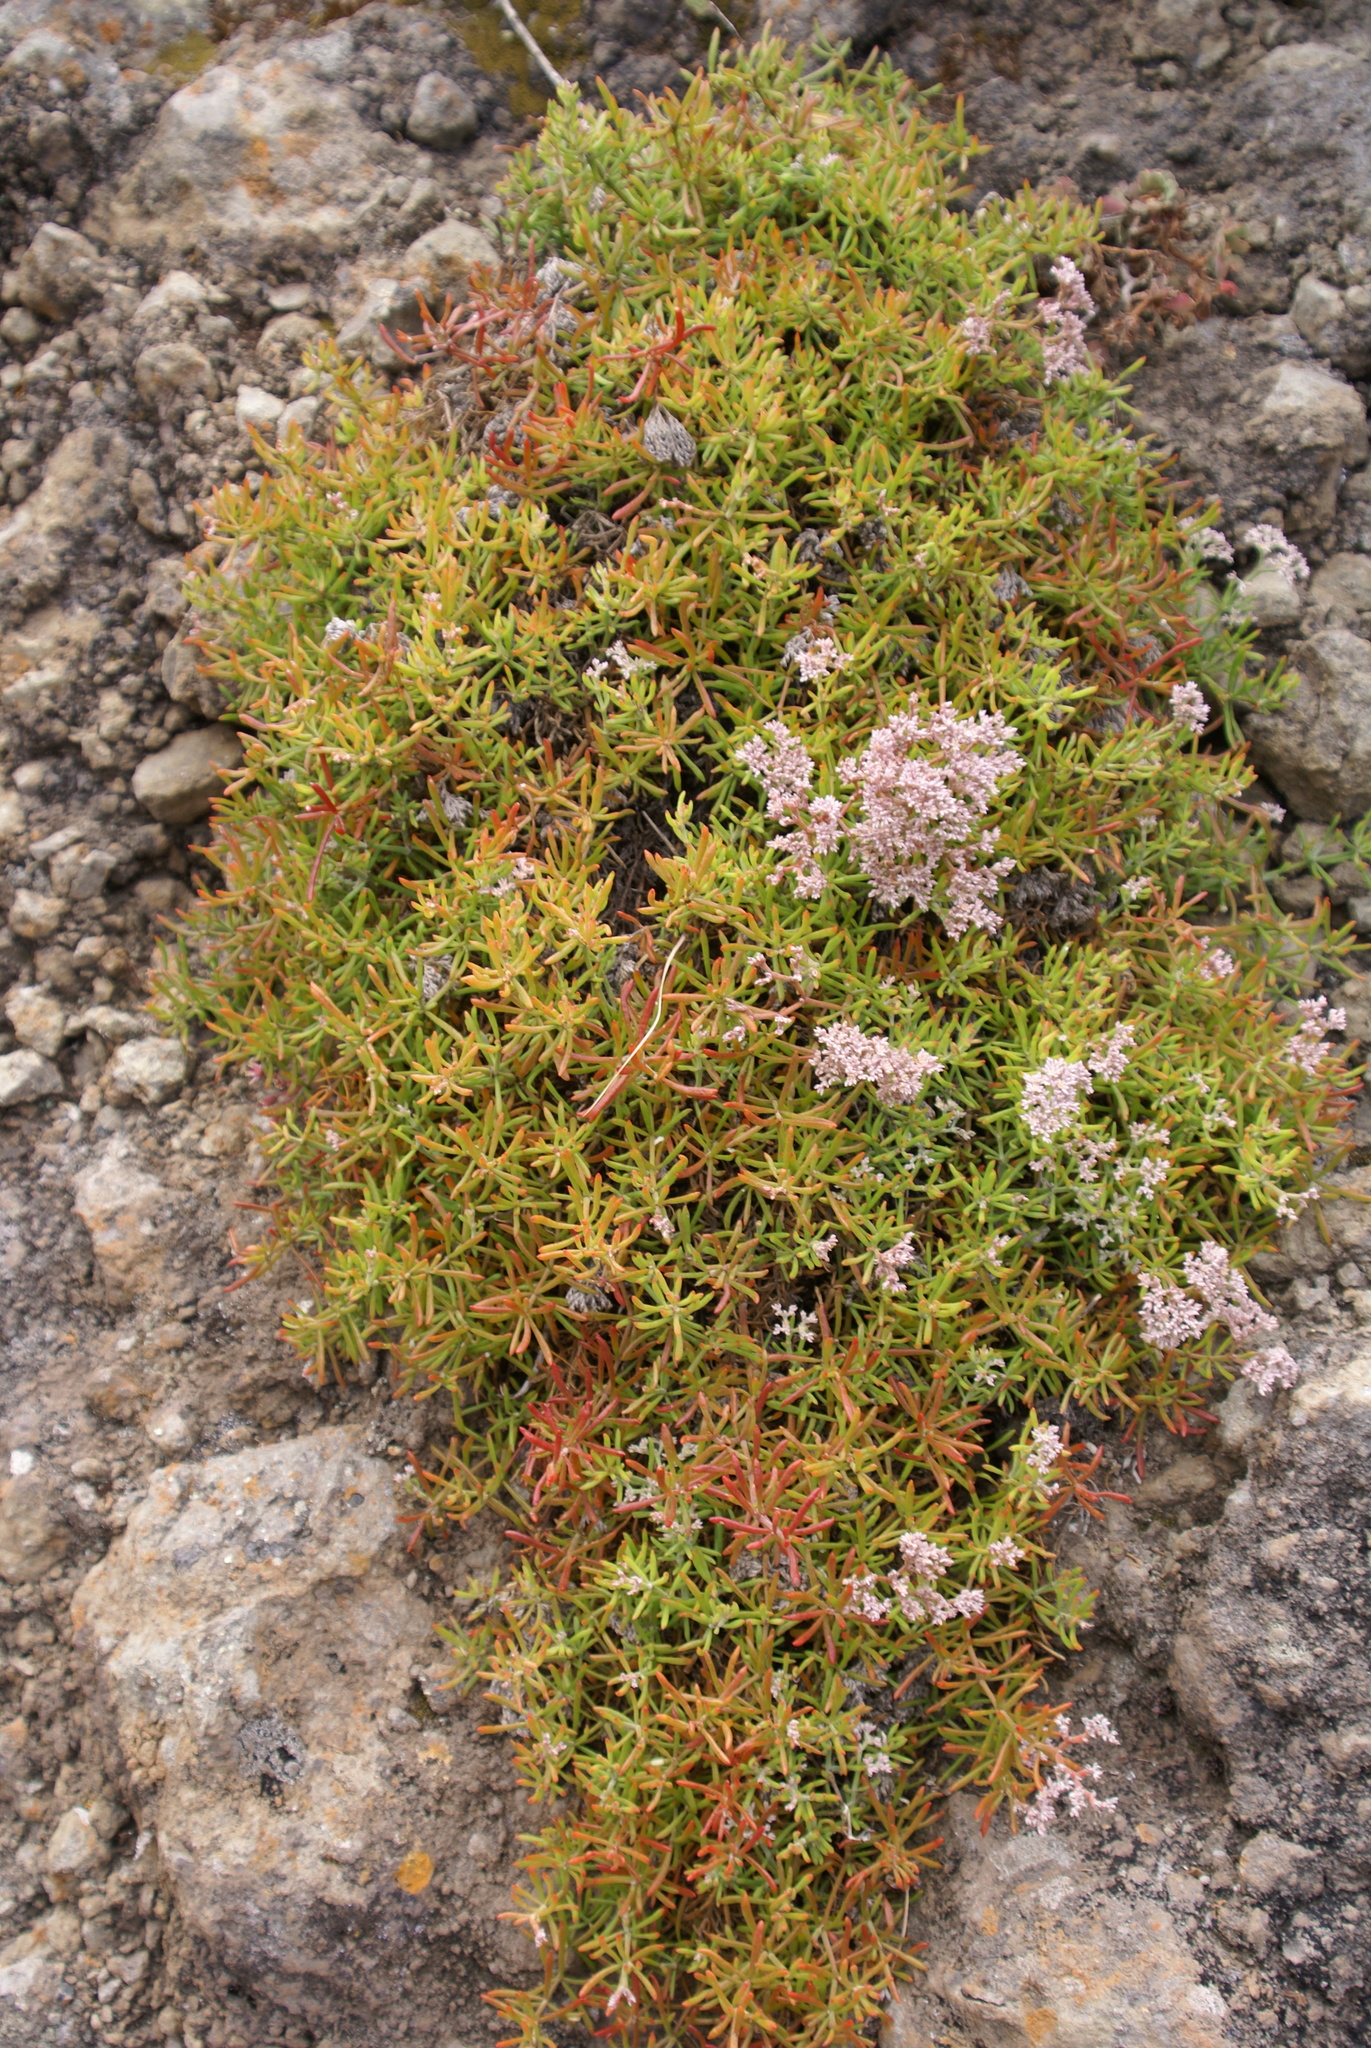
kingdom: Plantae
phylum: Tracheophyta
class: Magnoliopsida
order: Caryophyllales
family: Caryophyllaceae
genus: Polycarpaea
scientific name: Polycarpaea smithii
